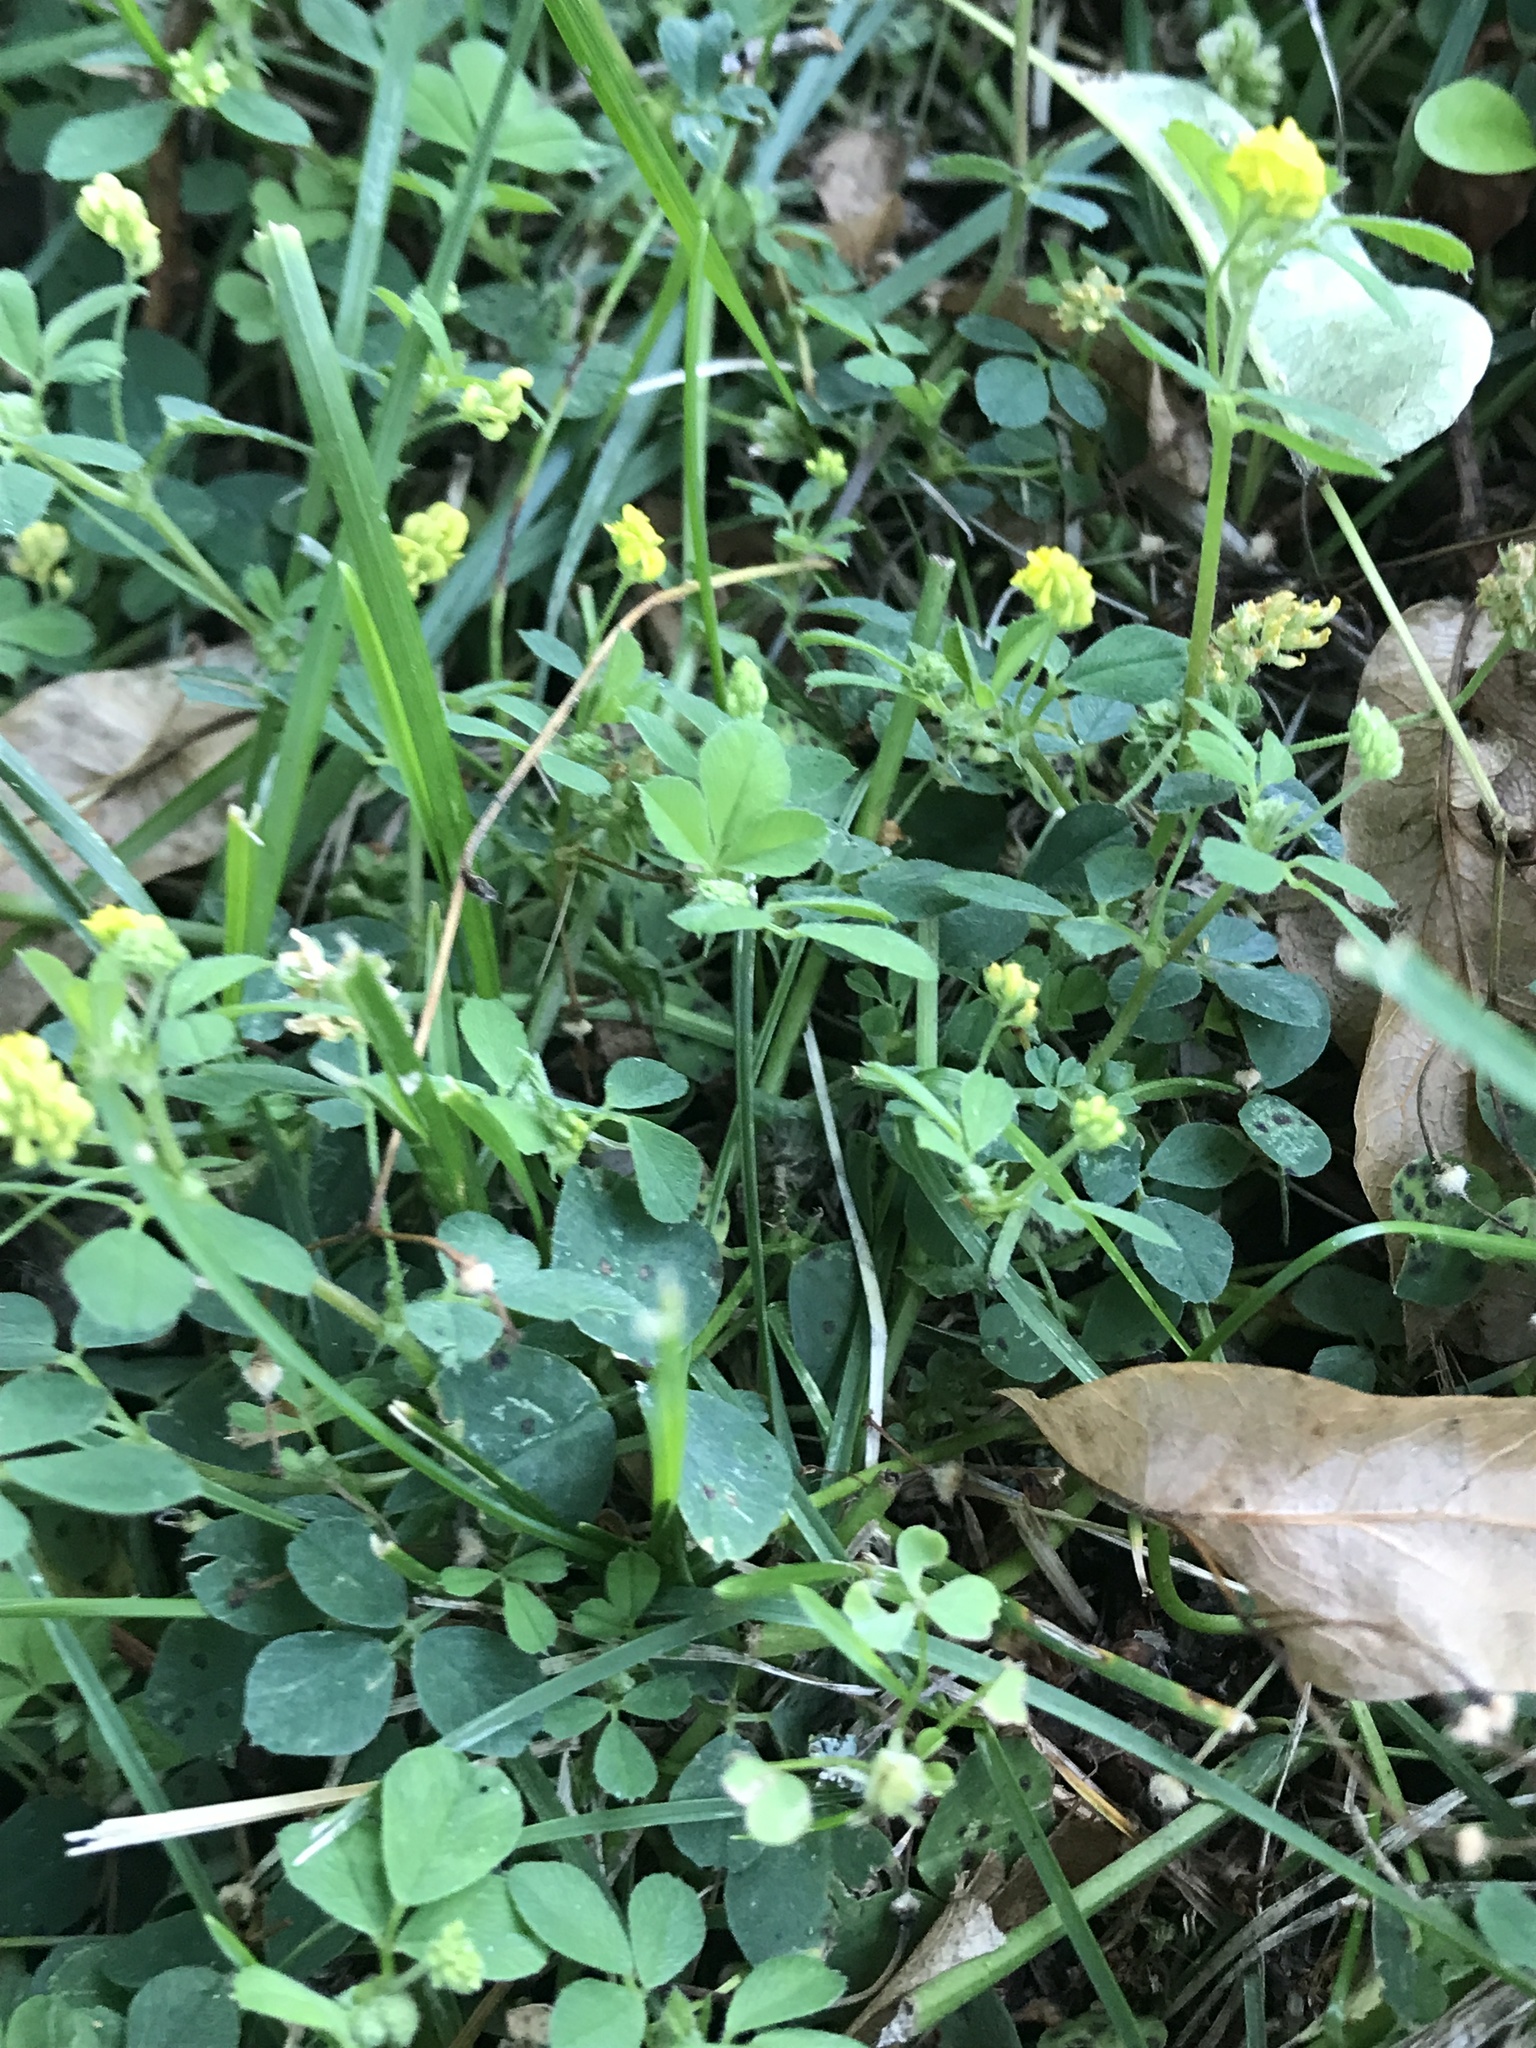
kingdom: Plantae
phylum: Tracheophyta
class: Magnoliopsida
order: Fabales
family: Fabaceae
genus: Medicago
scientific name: Medicago lupulina
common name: Black medick
